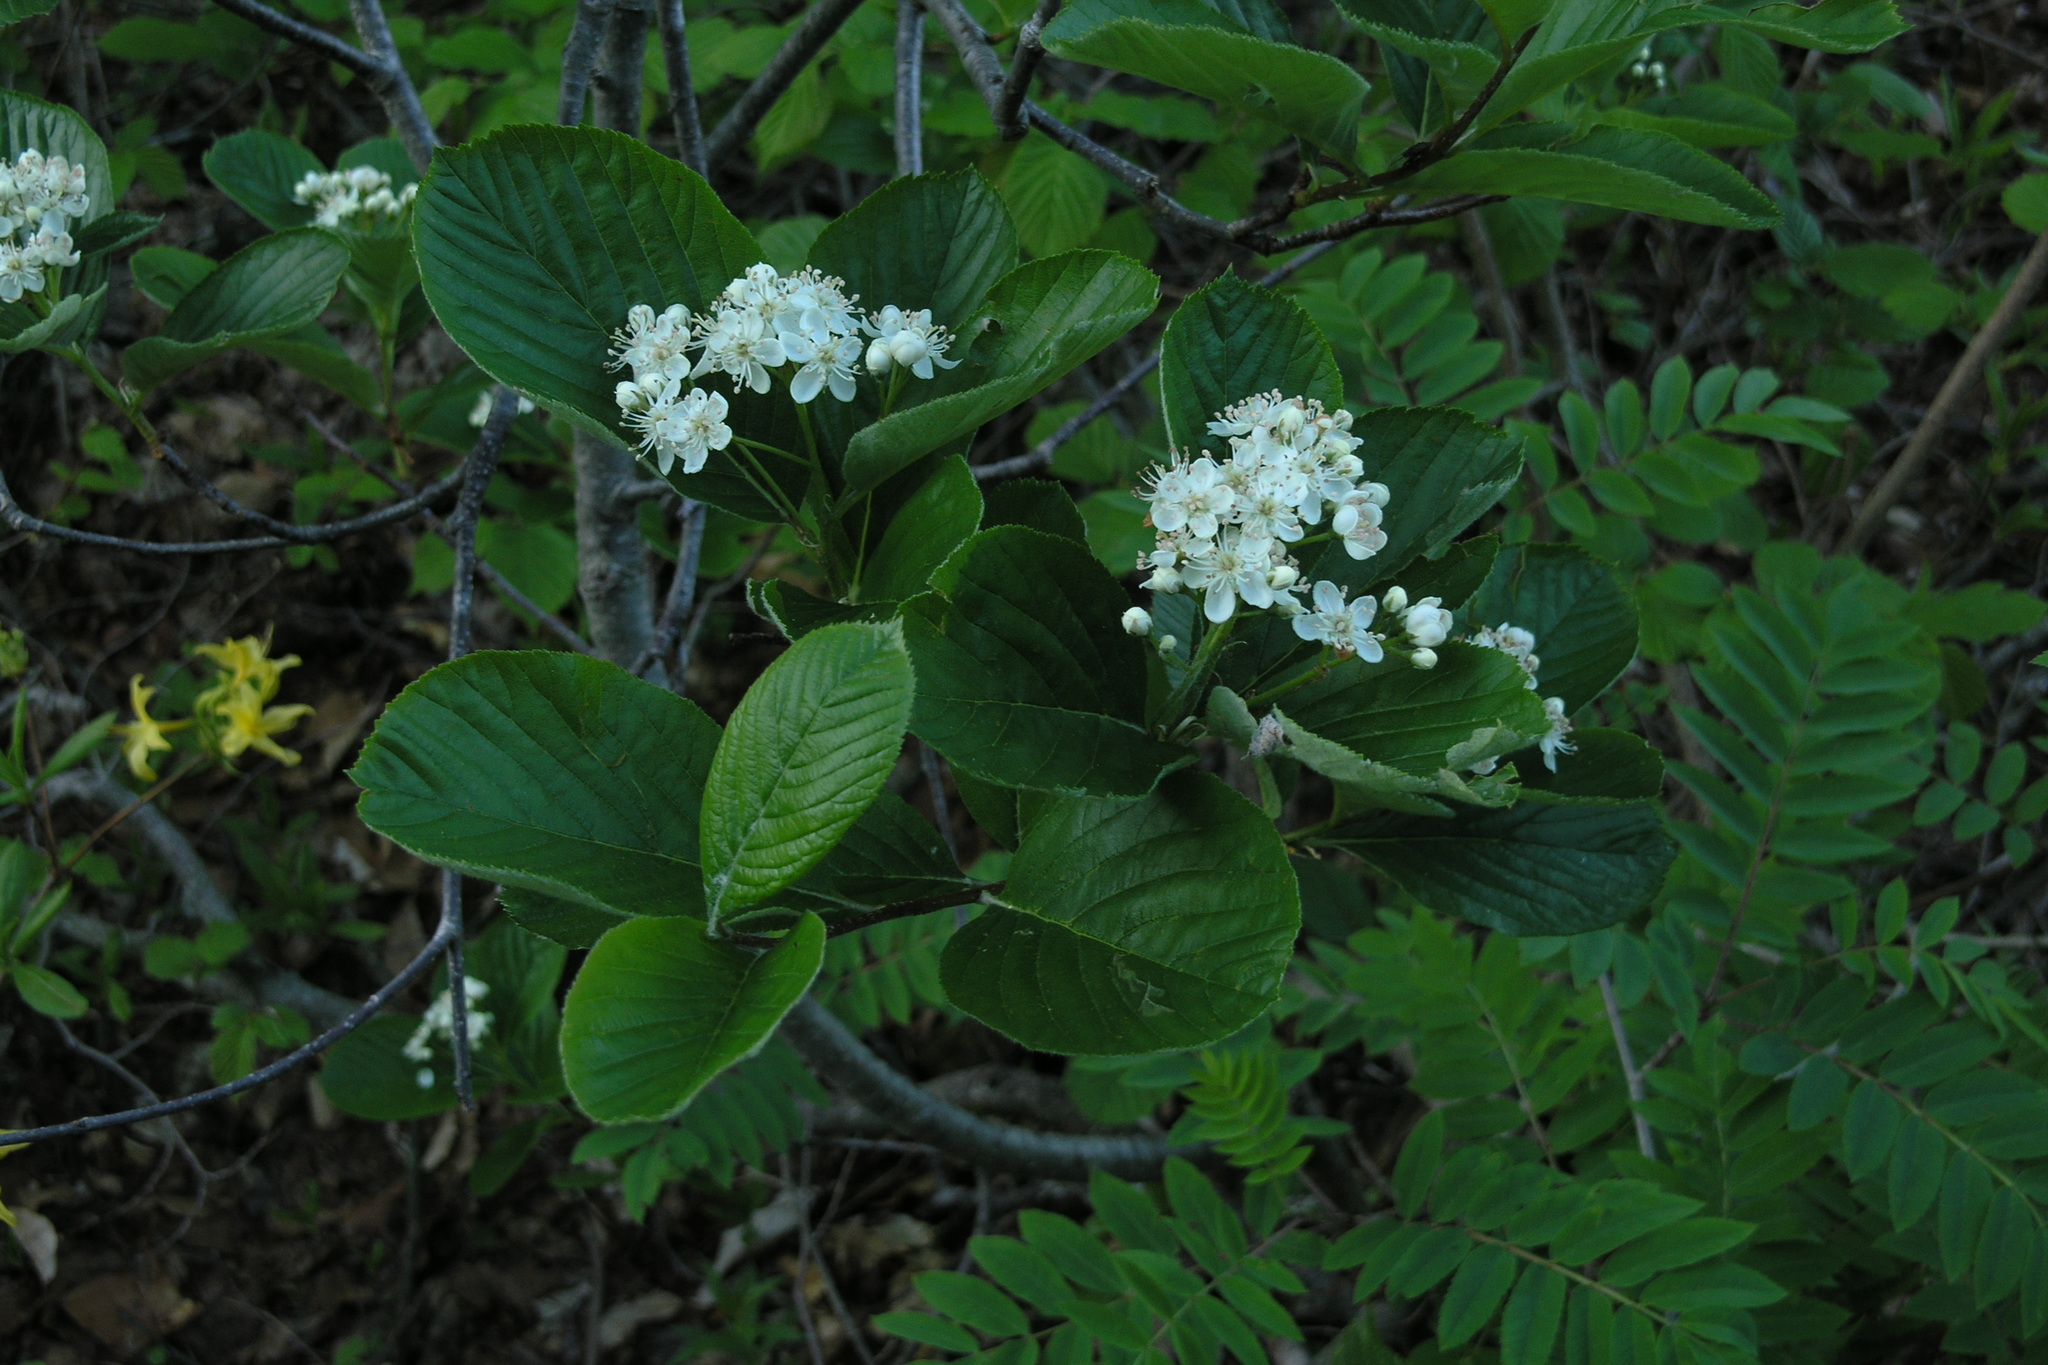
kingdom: Plantae
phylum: Tracheophyta
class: Magnoliopsida
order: Dipsacales
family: Viburnaceae
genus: Viburnum
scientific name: Viburnum lantana
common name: Wayfaring tree
